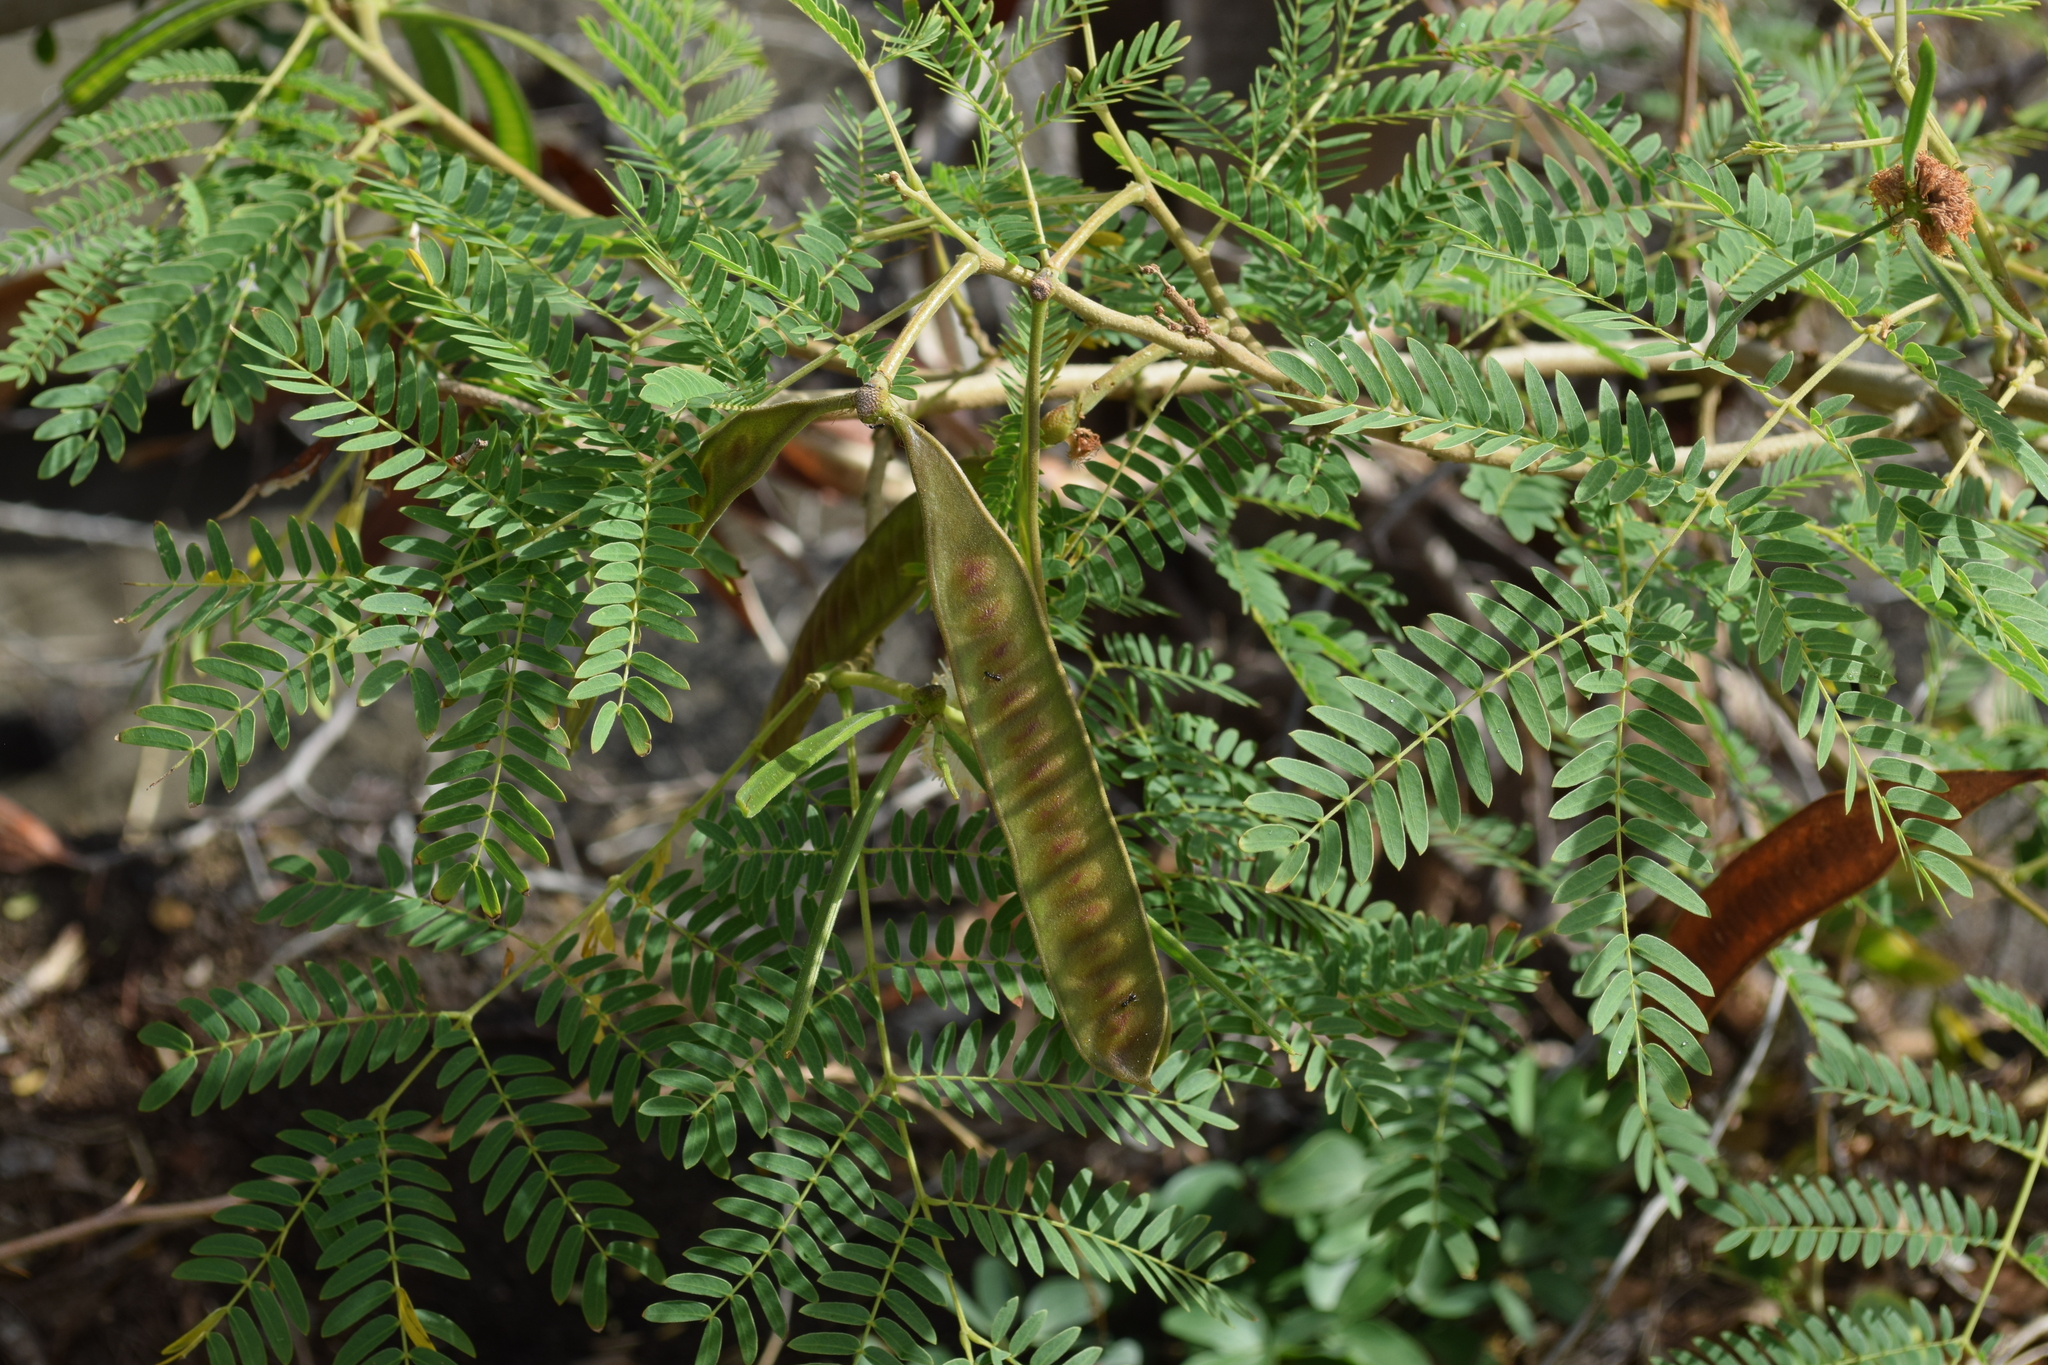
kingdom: Plantae
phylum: Tracheophyta
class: Magnoliopsida
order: Fabales
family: Fabaceae
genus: Leucaena
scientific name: Leucaena leucocephala
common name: White leadtree
